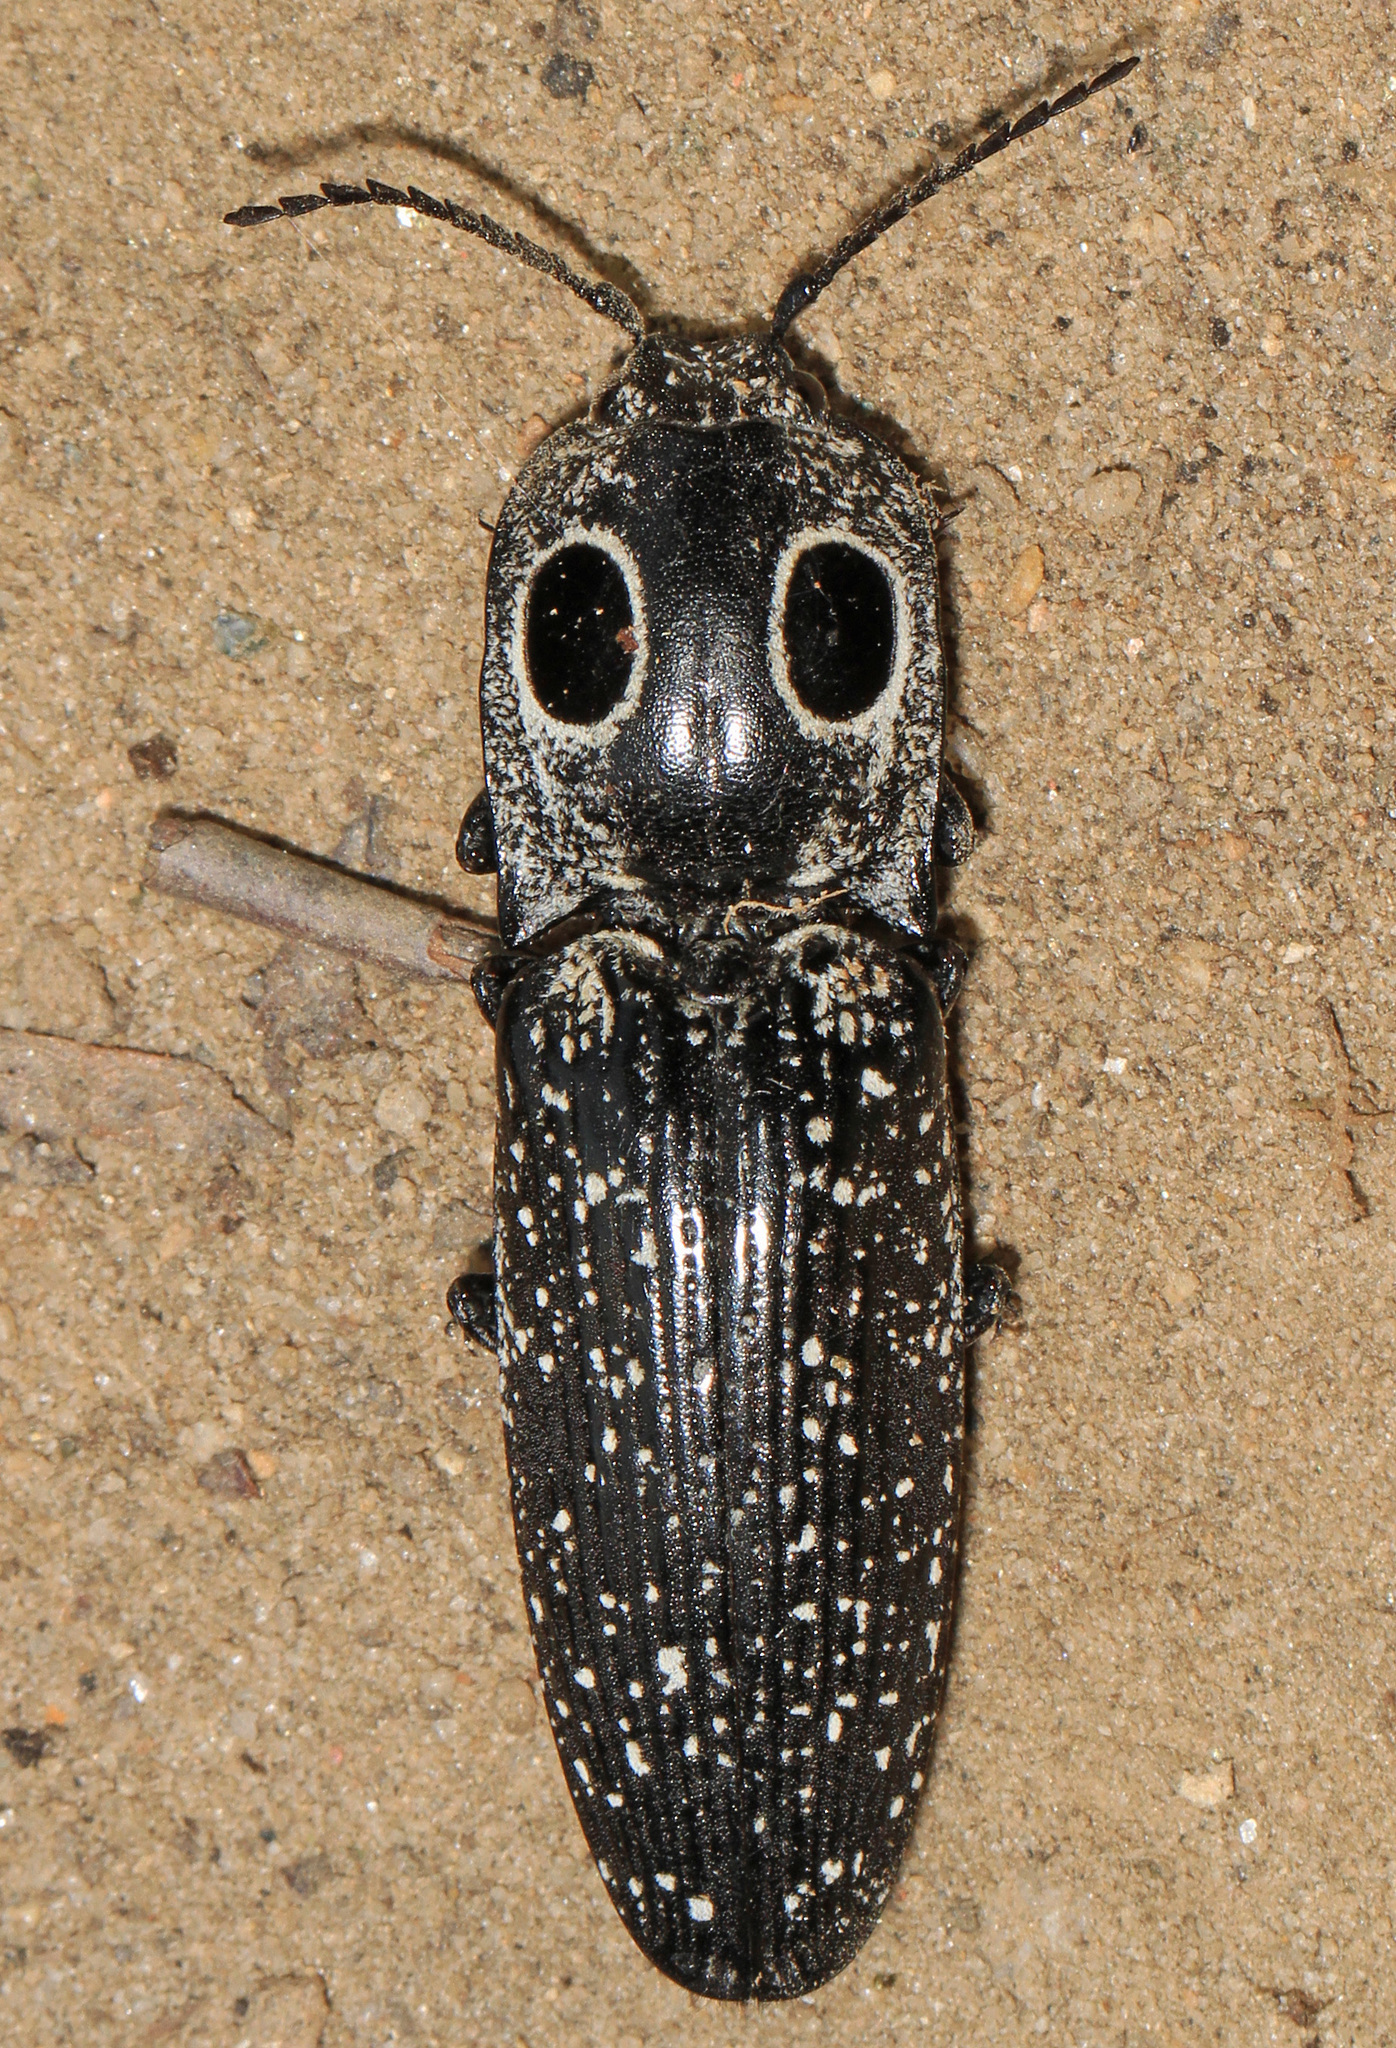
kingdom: Animalia
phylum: Arthropoda
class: Insecta
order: Coleoptera
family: Elateridae
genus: Alaus
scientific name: Alaus oculatus
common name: Eastern eyed click beetle
